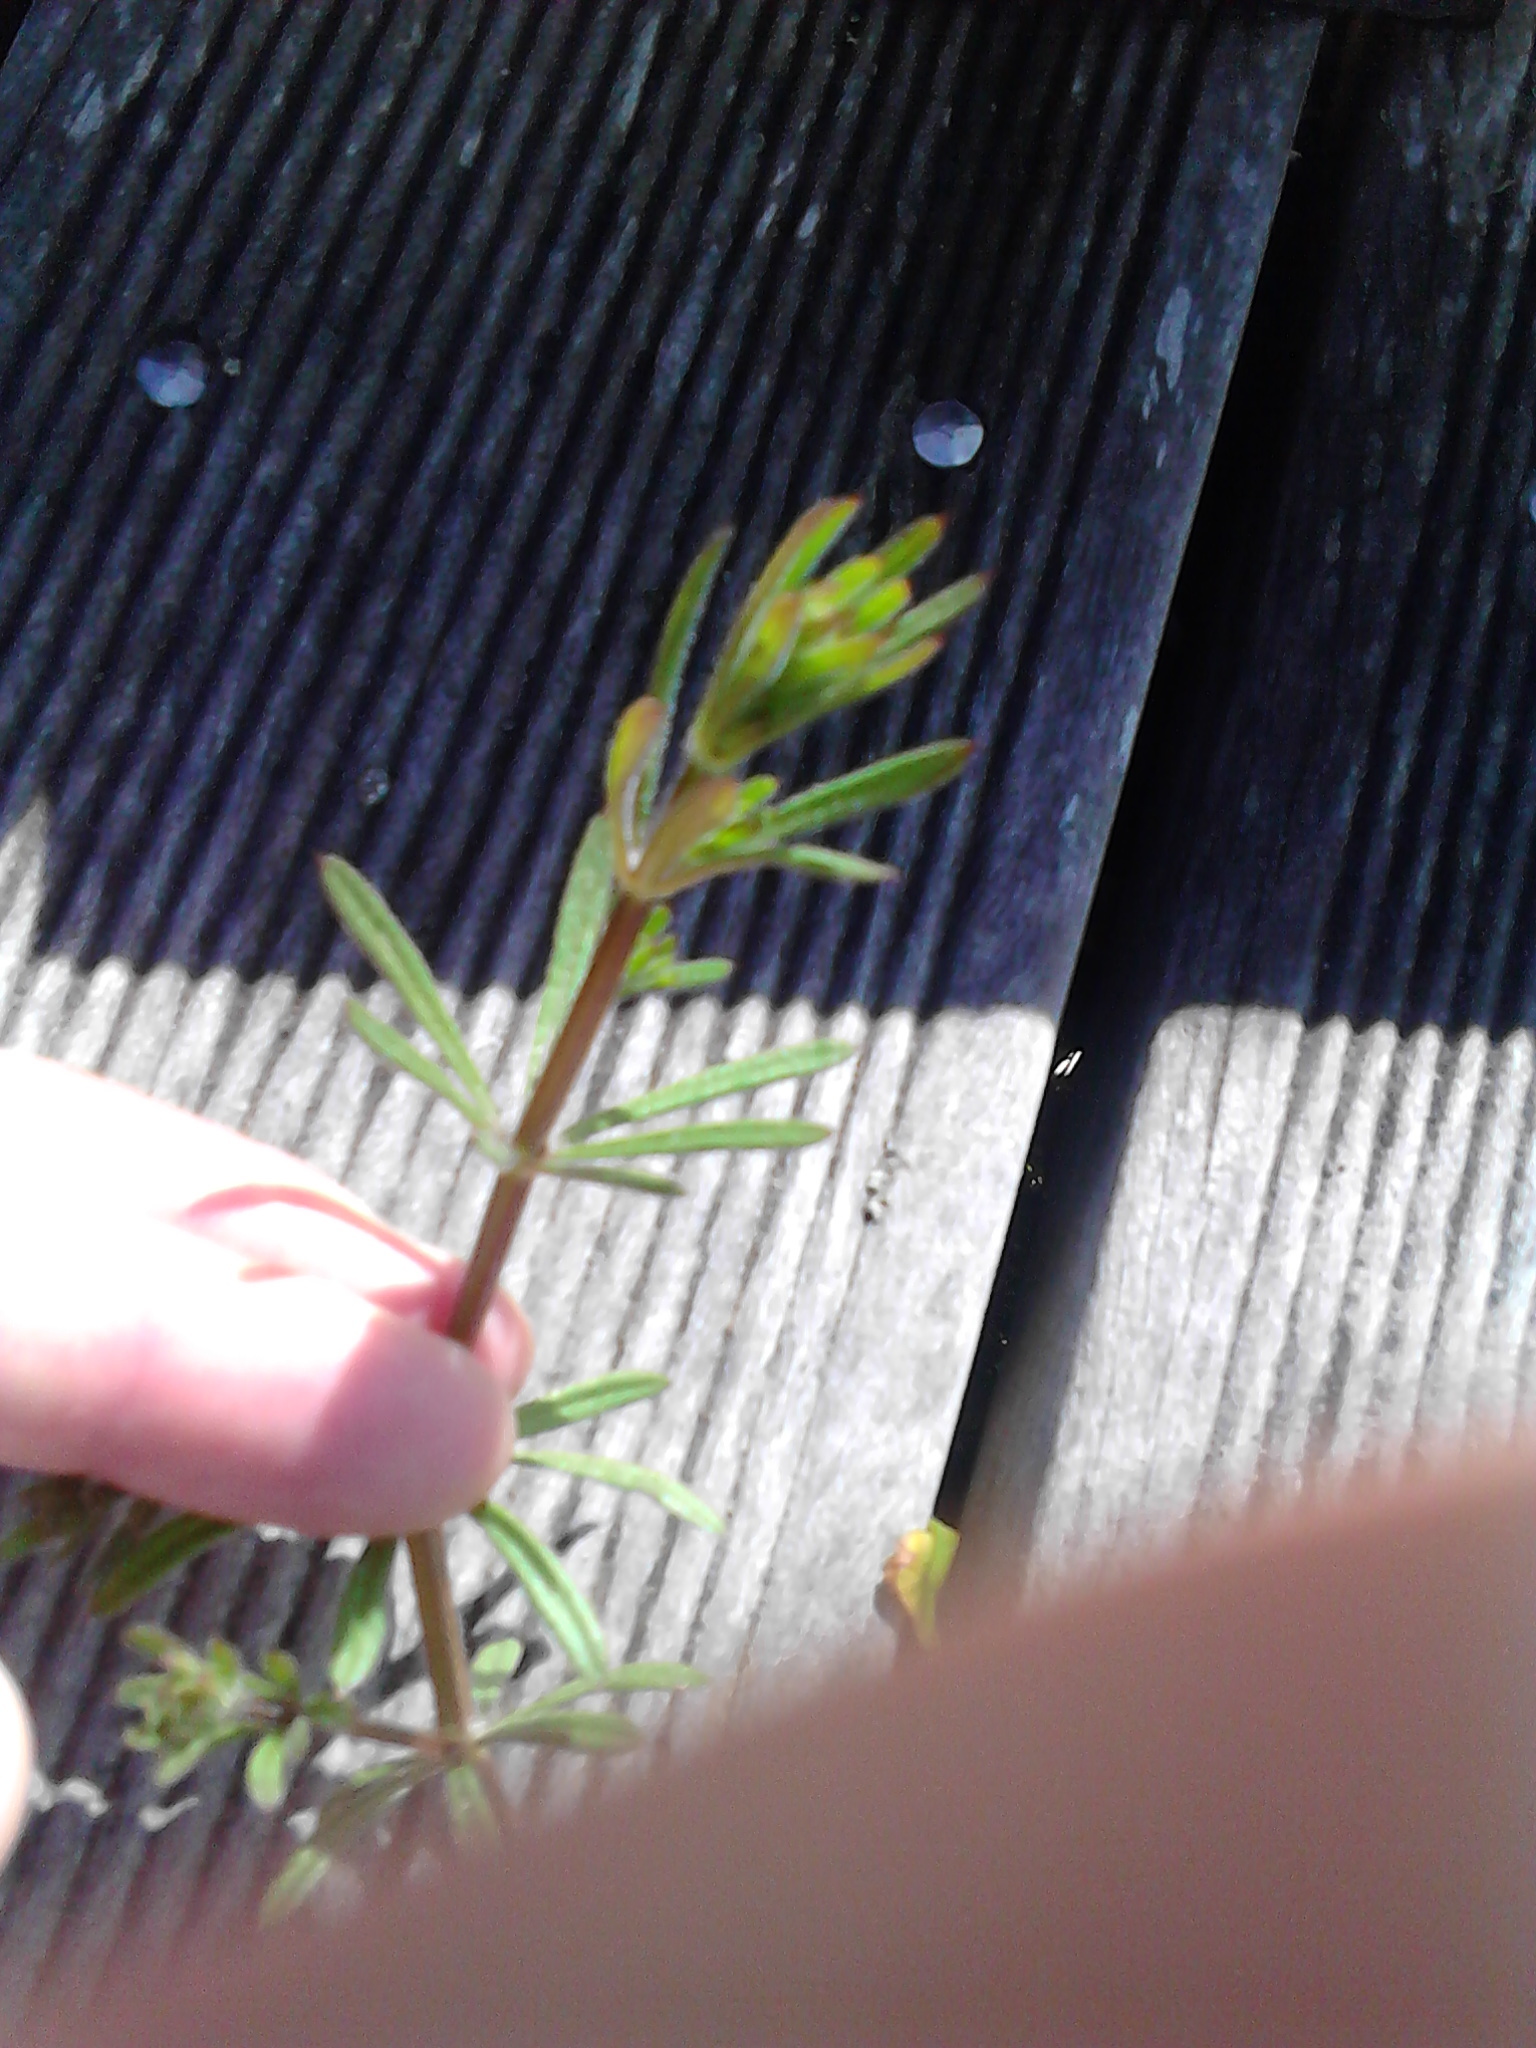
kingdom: Plantae
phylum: Tracheophyta
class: Magnoliopsida
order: Gentianales
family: Rubiaceae
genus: Galium
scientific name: Galium aparine
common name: Cleavers
